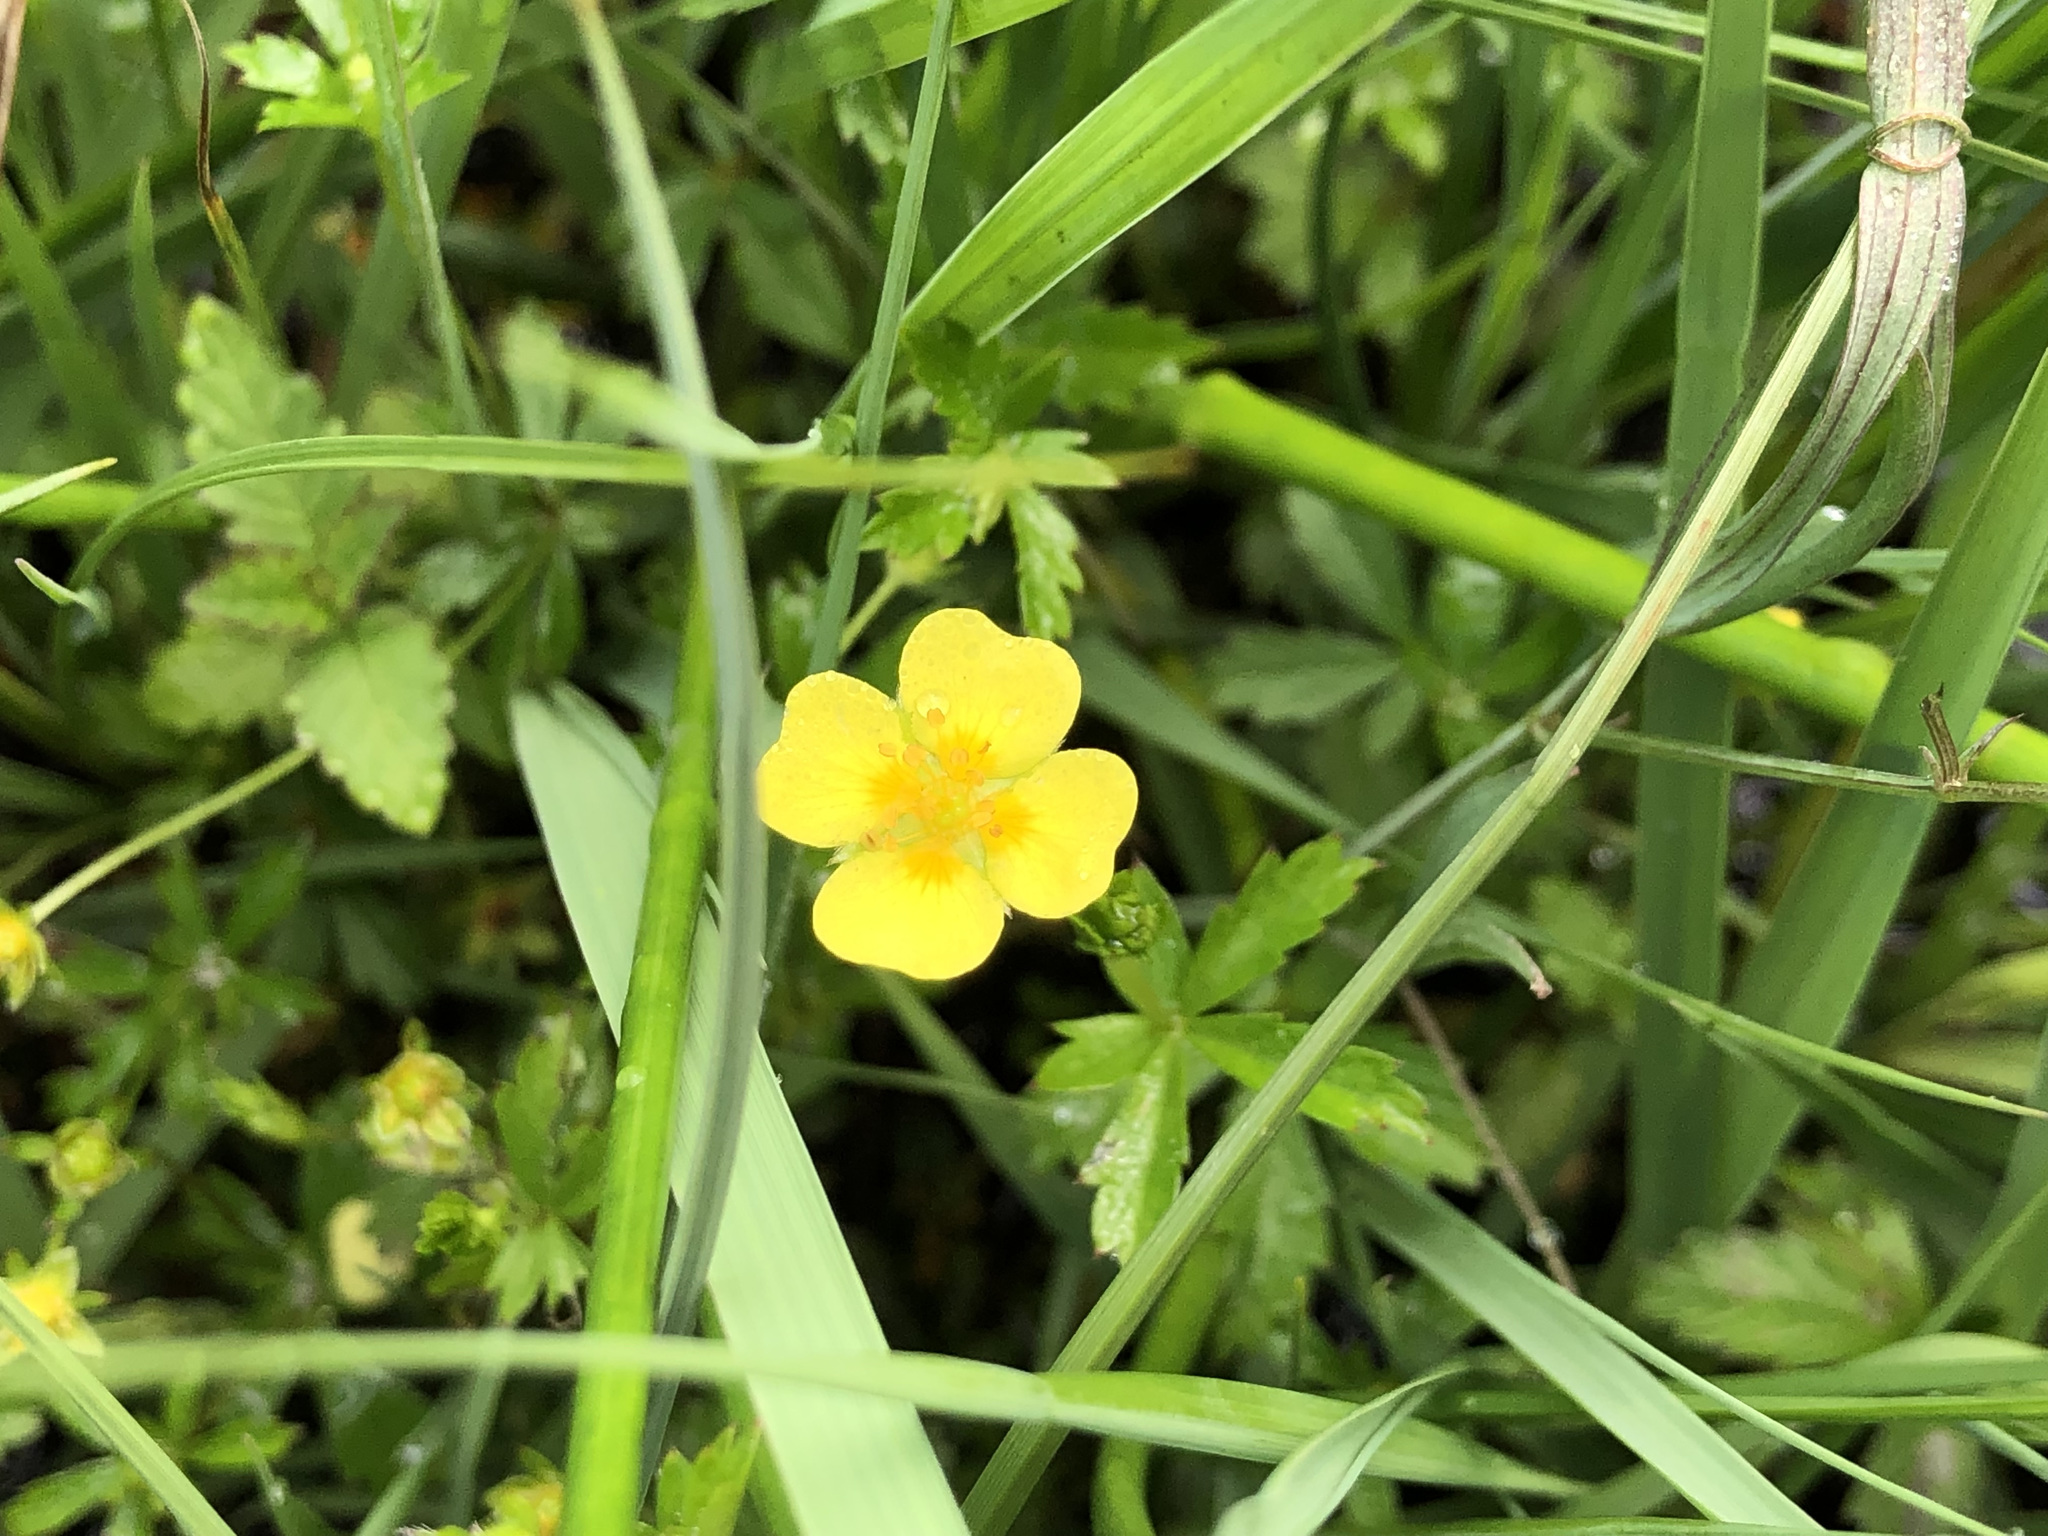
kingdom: Plantae
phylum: Tracheophyta
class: Magnoliopsida
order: Rosales
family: Rosaceae
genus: Potentilla
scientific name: Potentilla erecta
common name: Tormentil
